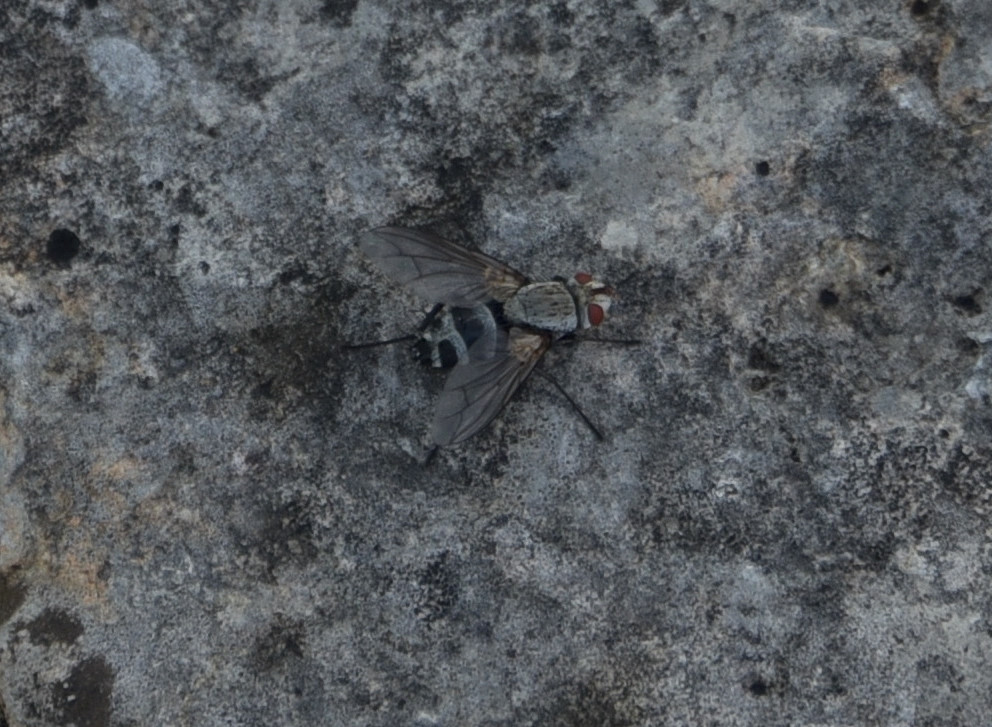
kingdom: Animalia
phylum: Arthropoda
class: Insecta
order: Diptera
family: Tachinidae
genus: Microphthalma
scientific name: Microphthalma disjuncta
